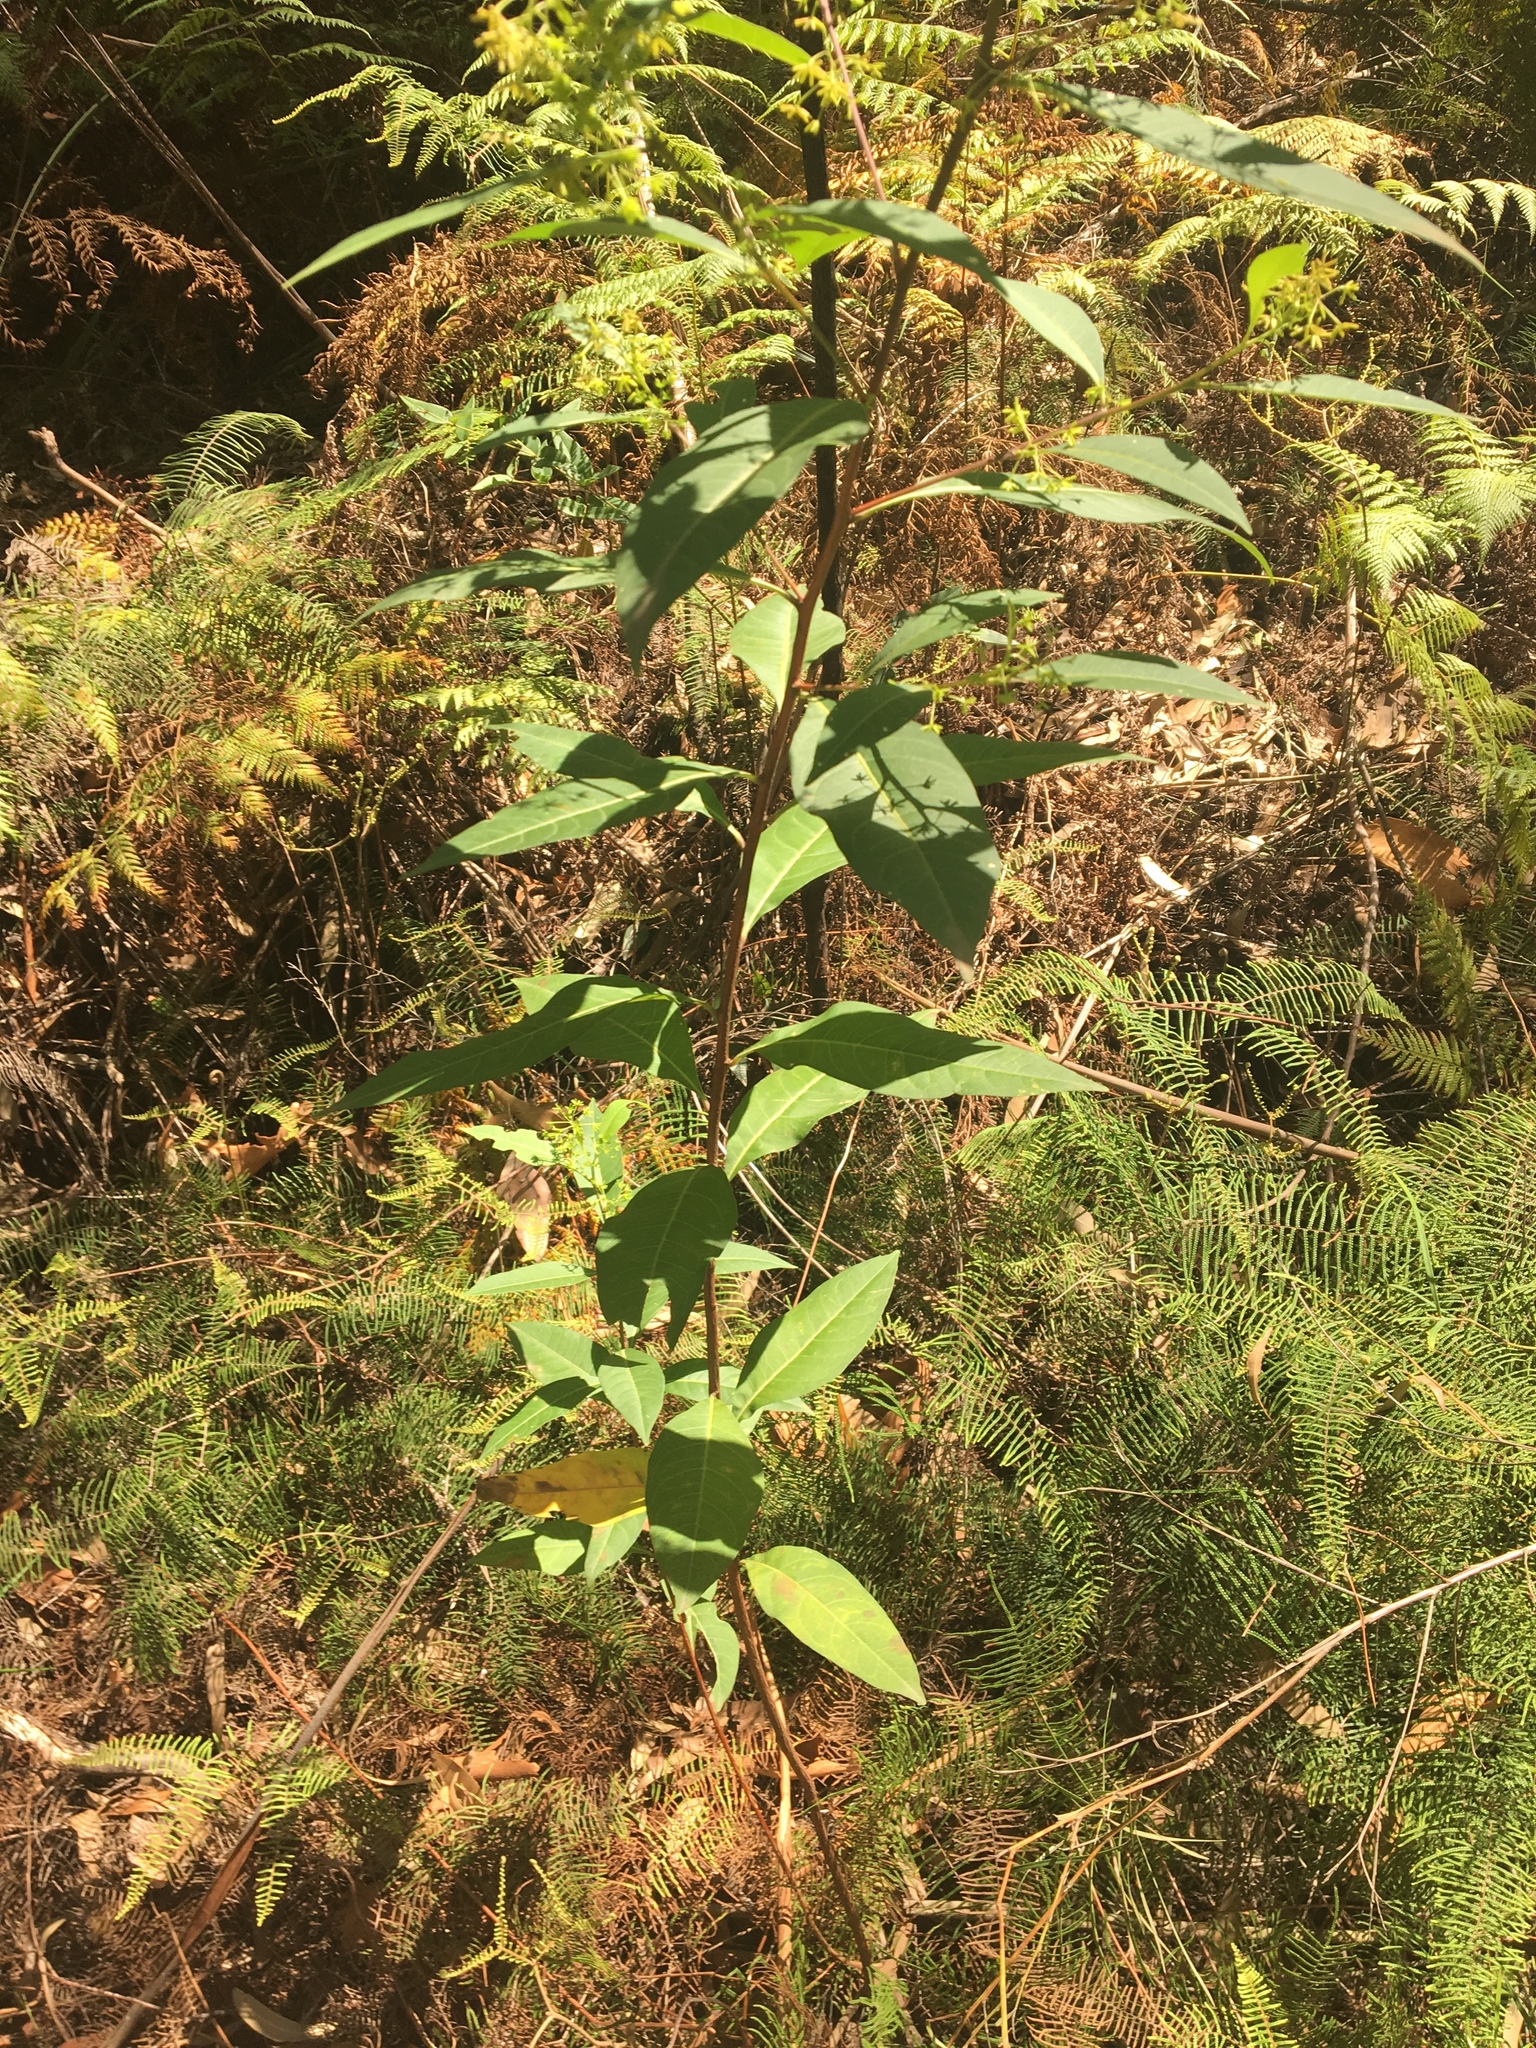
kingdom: Plantae
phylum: Tracheophyta
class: Magnoliopsida
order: Sapindales
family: Sapindaceae
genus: Dodonaea
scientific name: Dodonaea triquetra
